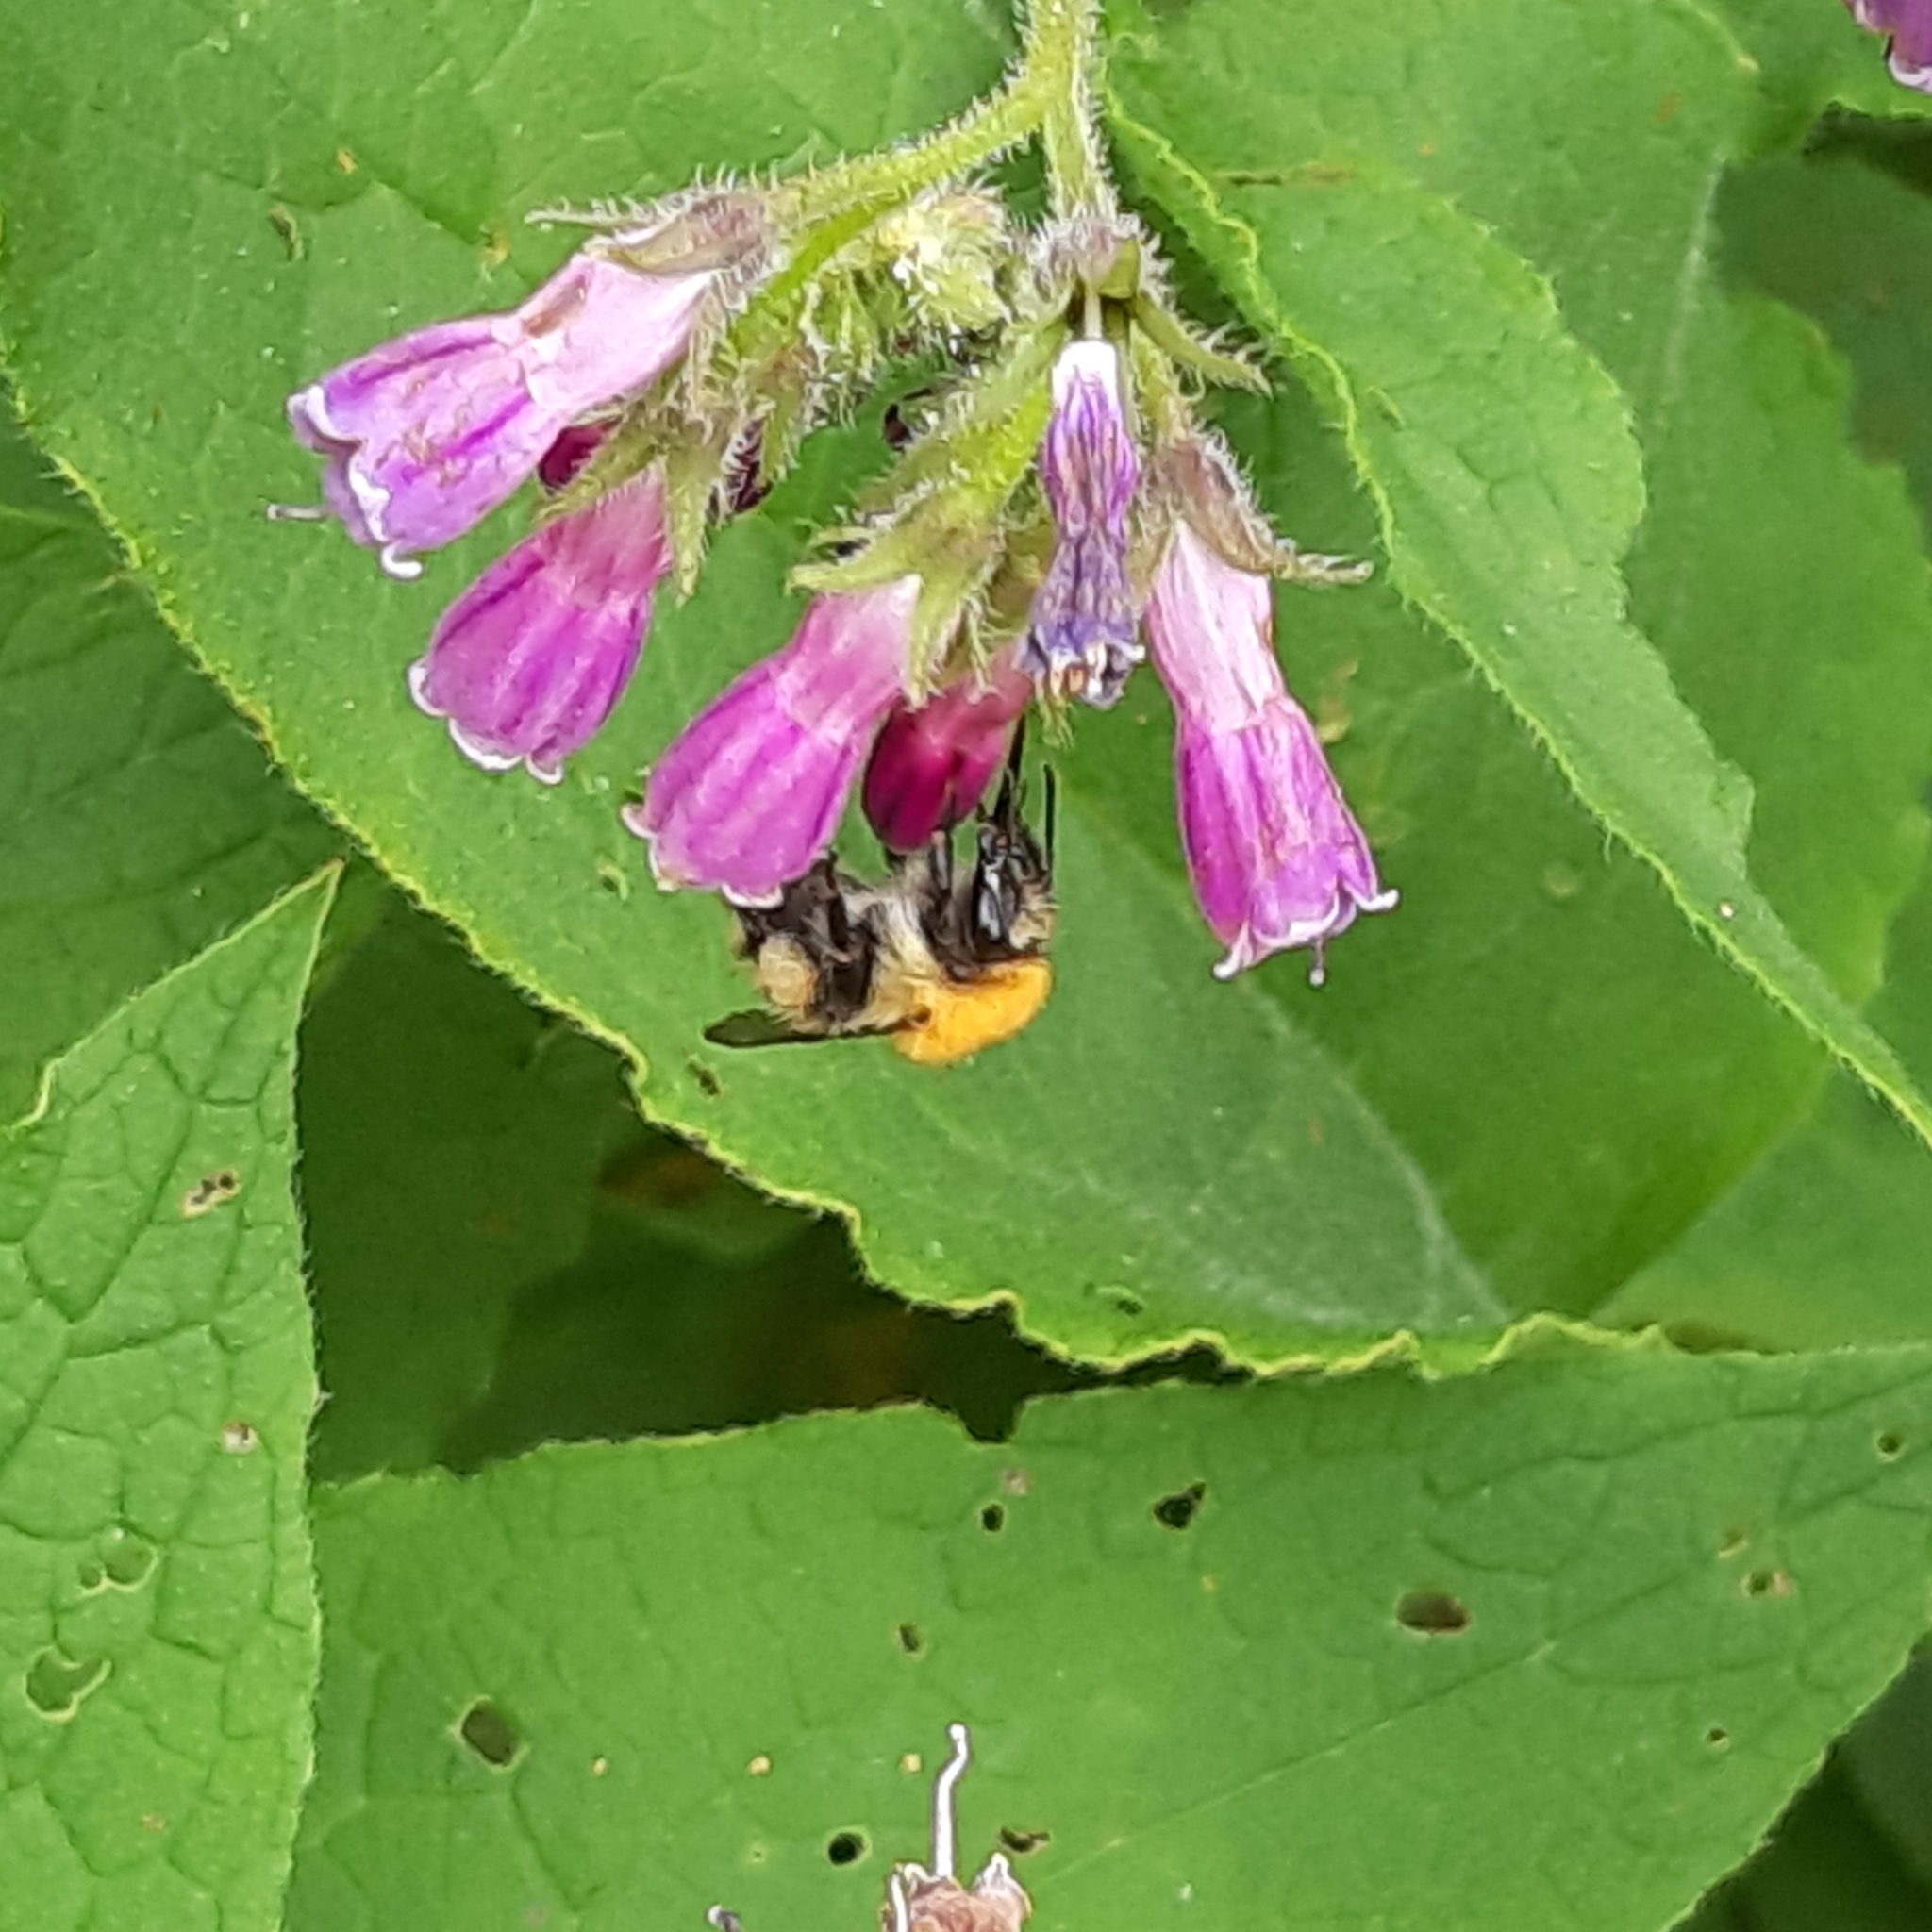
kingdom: Animalia
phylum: Arthropoda
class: Insecta
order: Hymenoptera
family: Apidae
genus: Bombus
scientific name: Bombus pascuorum
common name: Common carder bee
